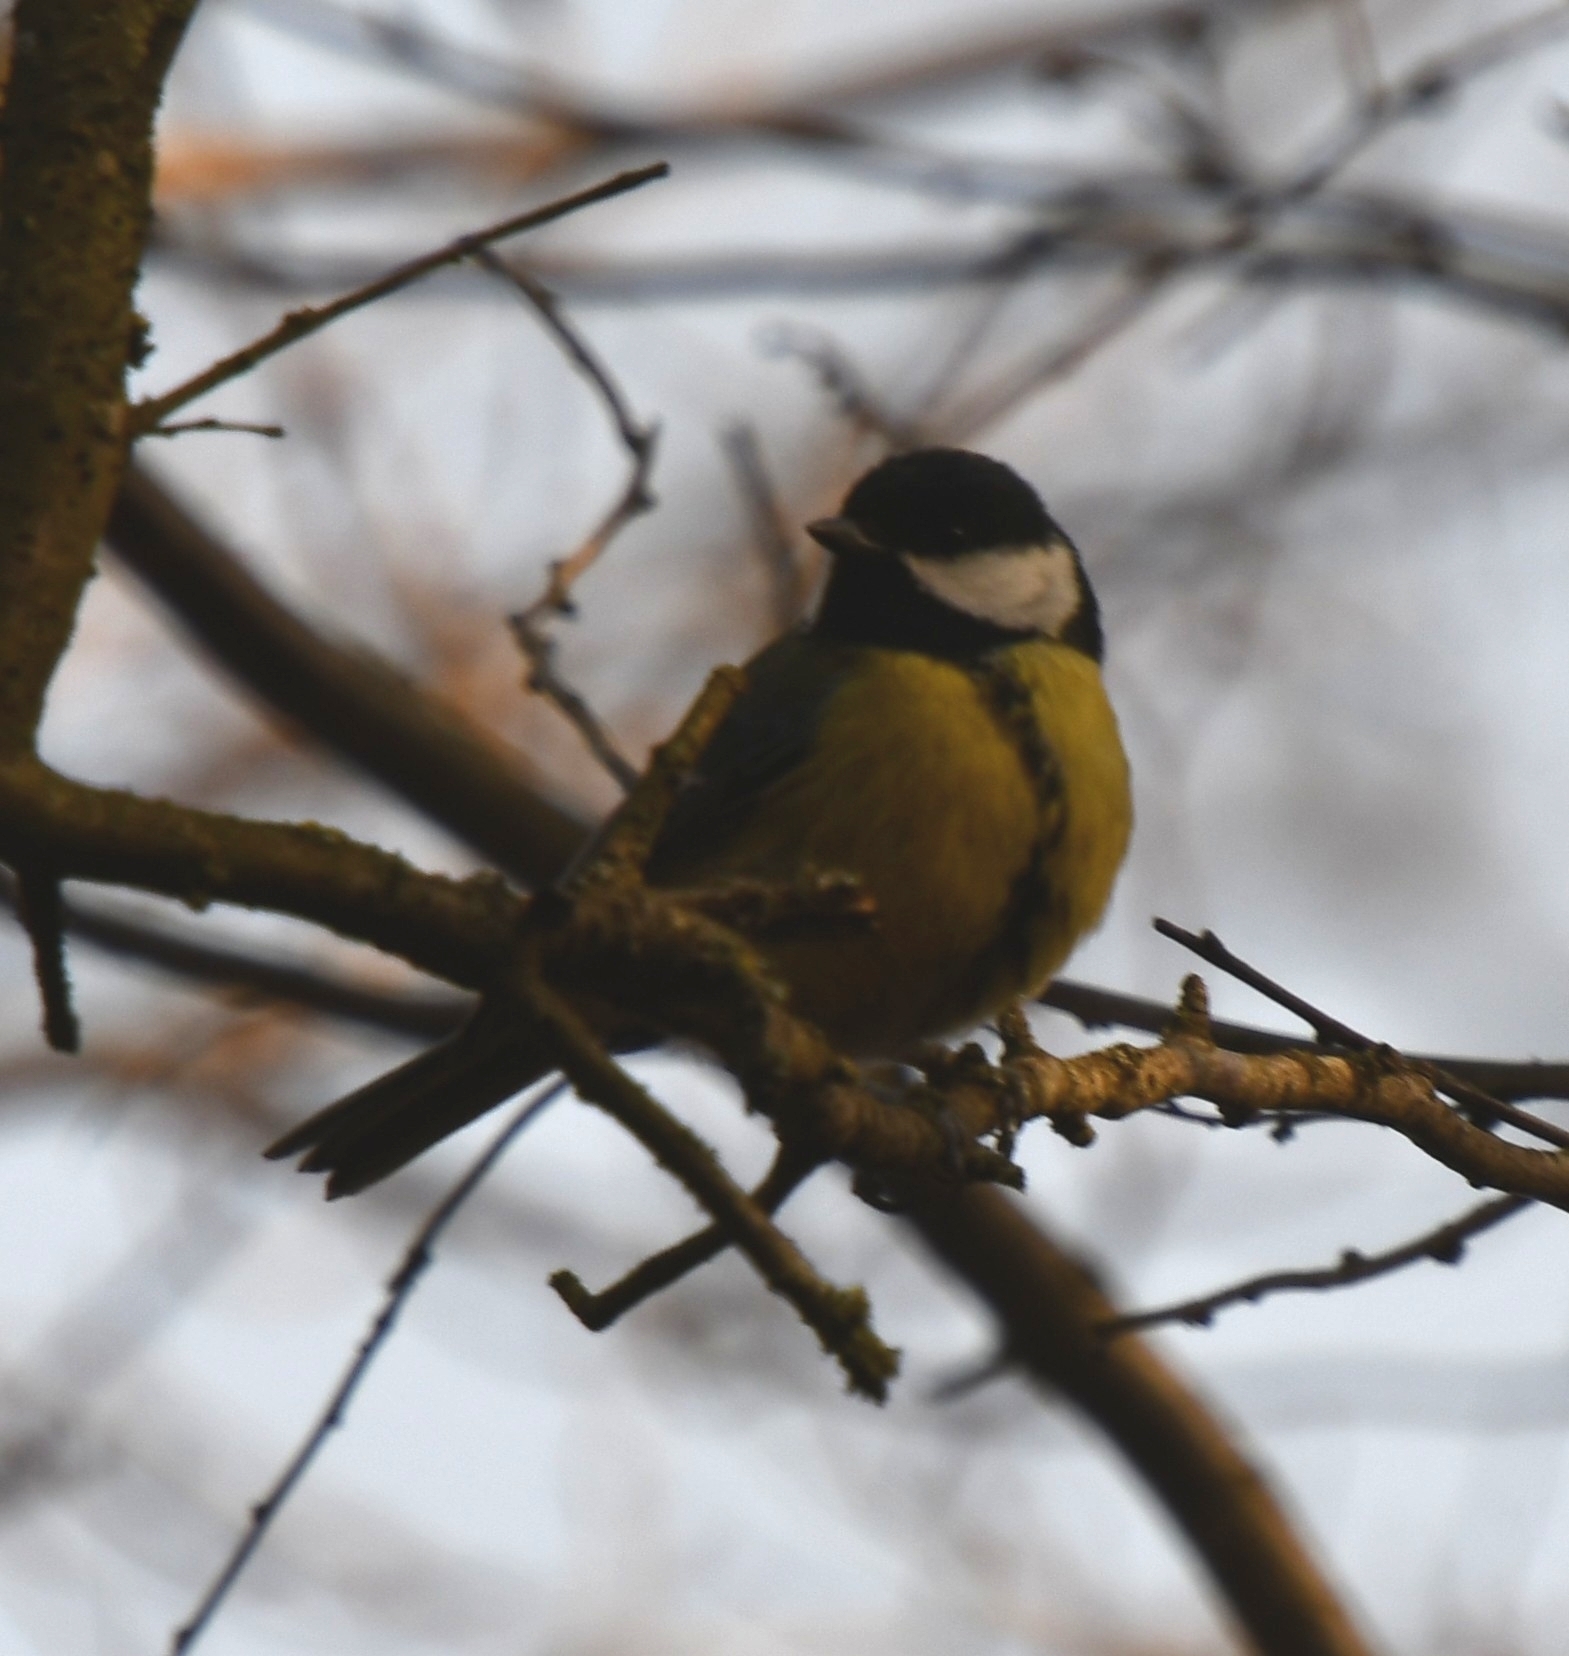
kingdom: Animalia
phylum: Chordata
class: Aves
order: Passeriformes
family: Paridae
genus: Parus
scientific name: Parus major
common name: Great tit
